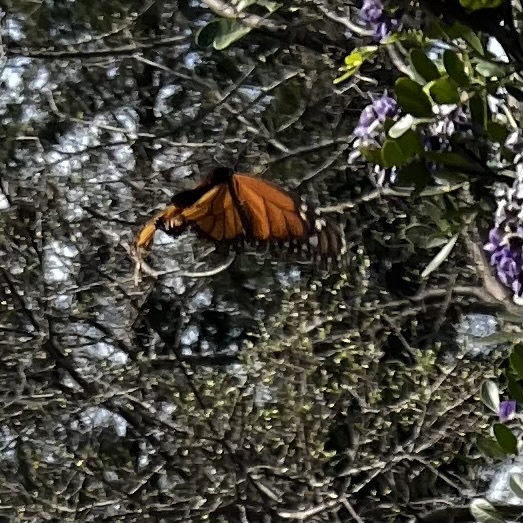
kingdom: Animalia
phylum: Arthropoda
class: Insecta
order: Lepidoptera
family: Nymphalidae
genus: Danaus
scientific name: Danaus plexippus
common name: Monarch
